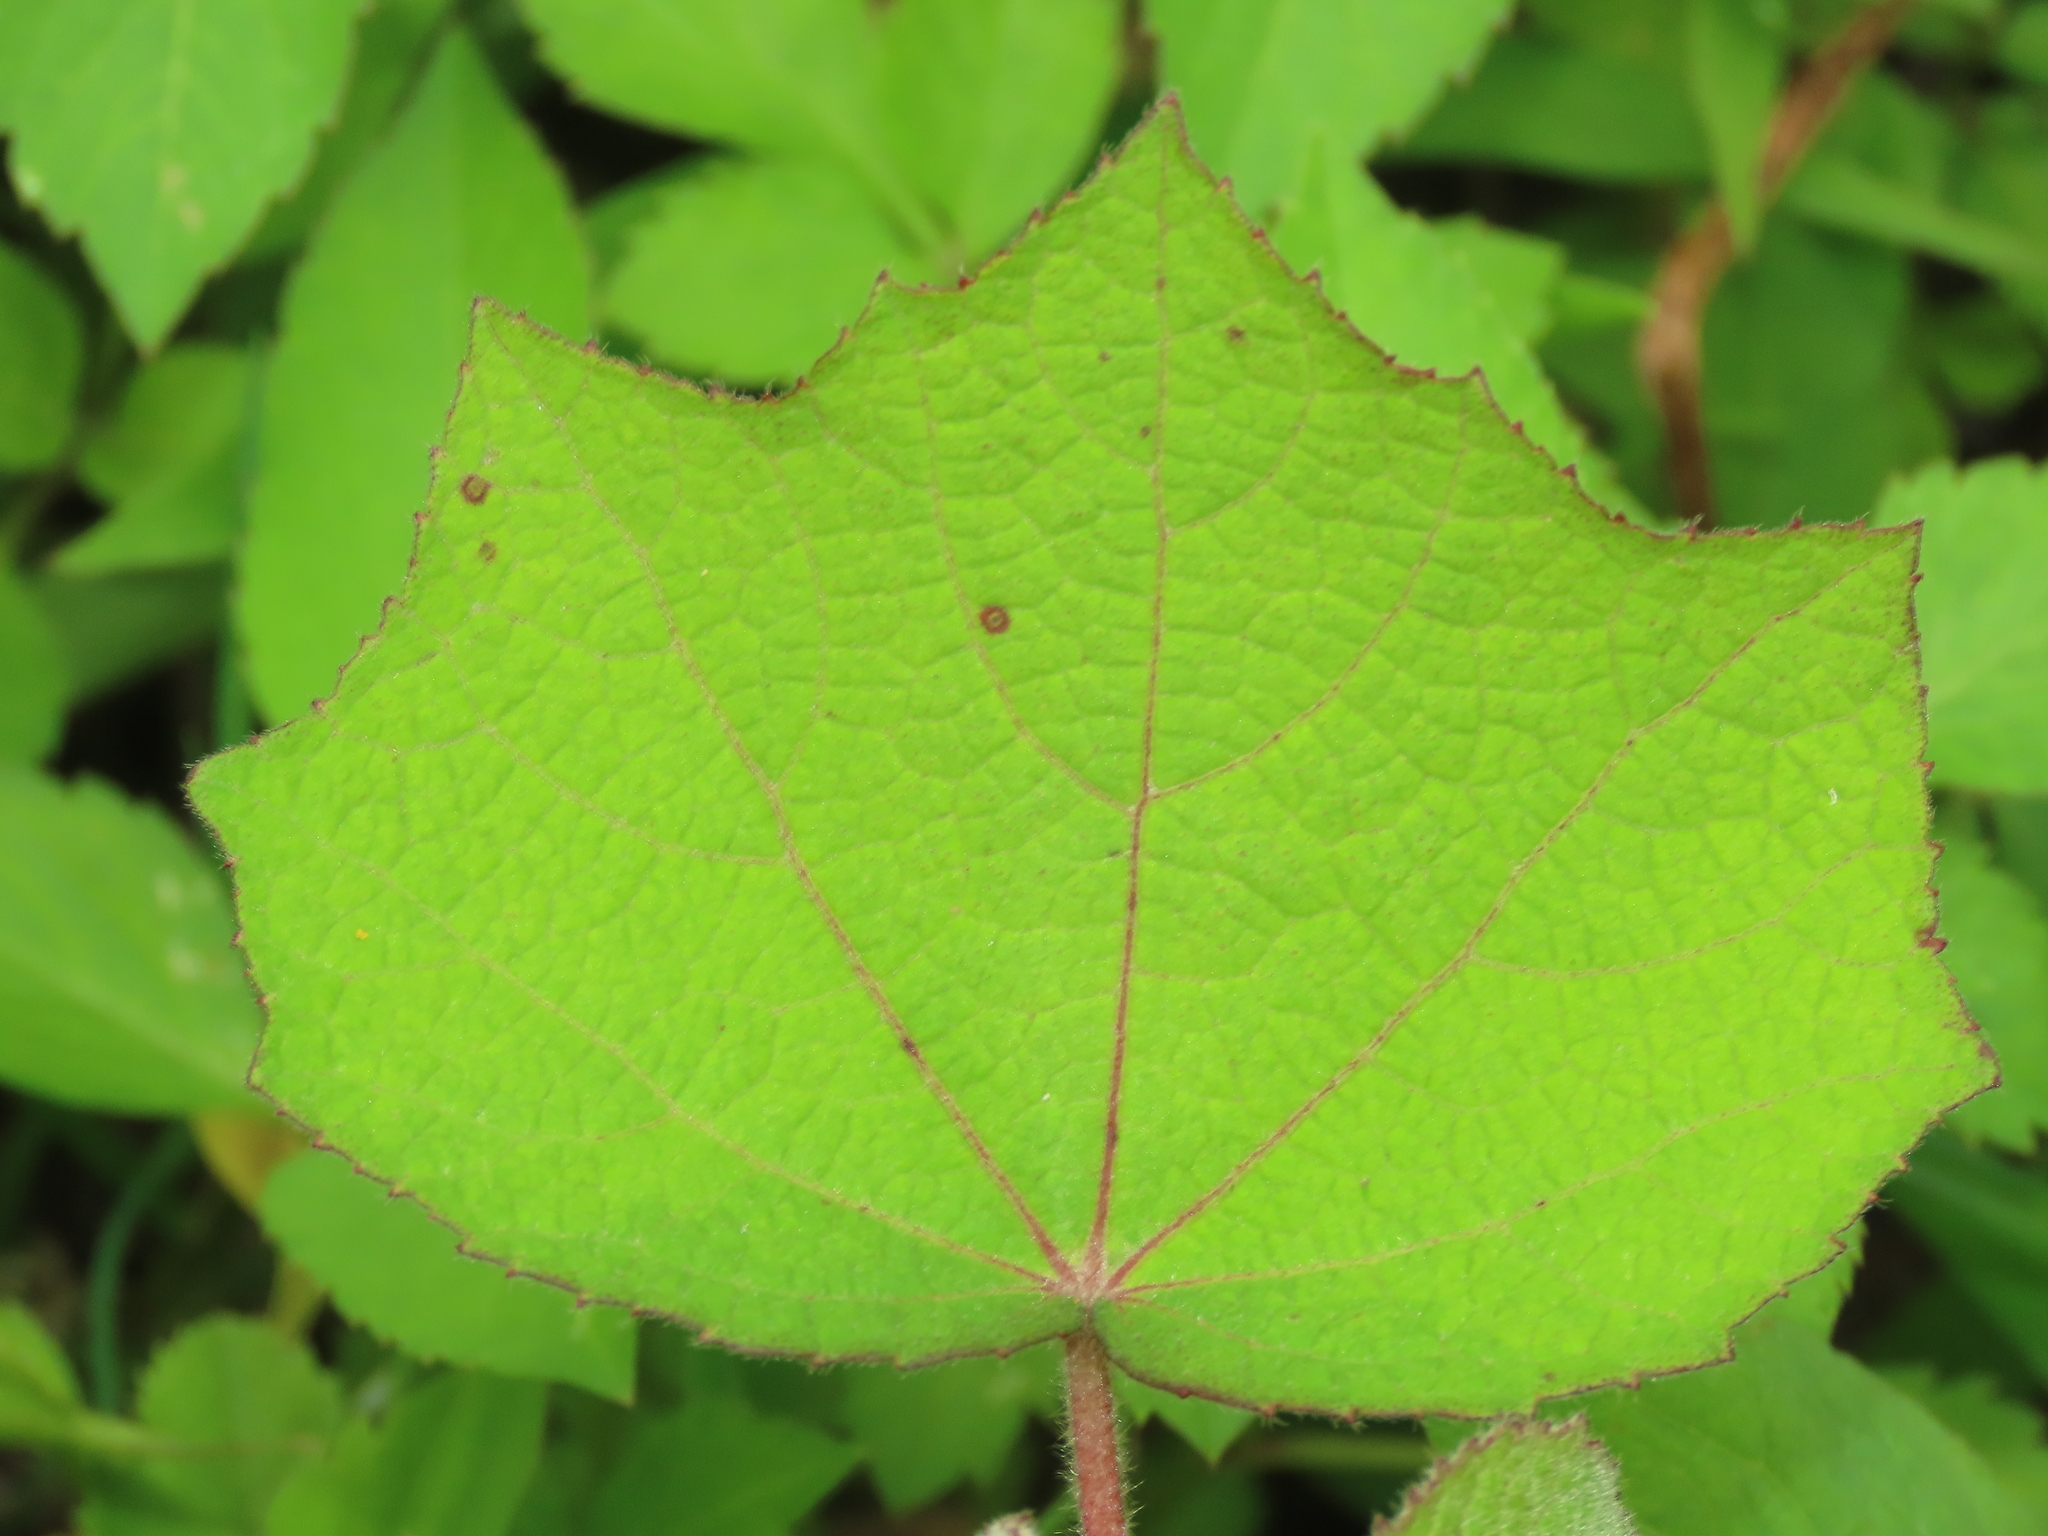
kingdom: Plantae
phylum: Tracheophyta
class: Magnoliopsida
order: Malvales
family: Malvaceae
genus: Urena
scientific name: Urena lobata
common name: Caesarweed
